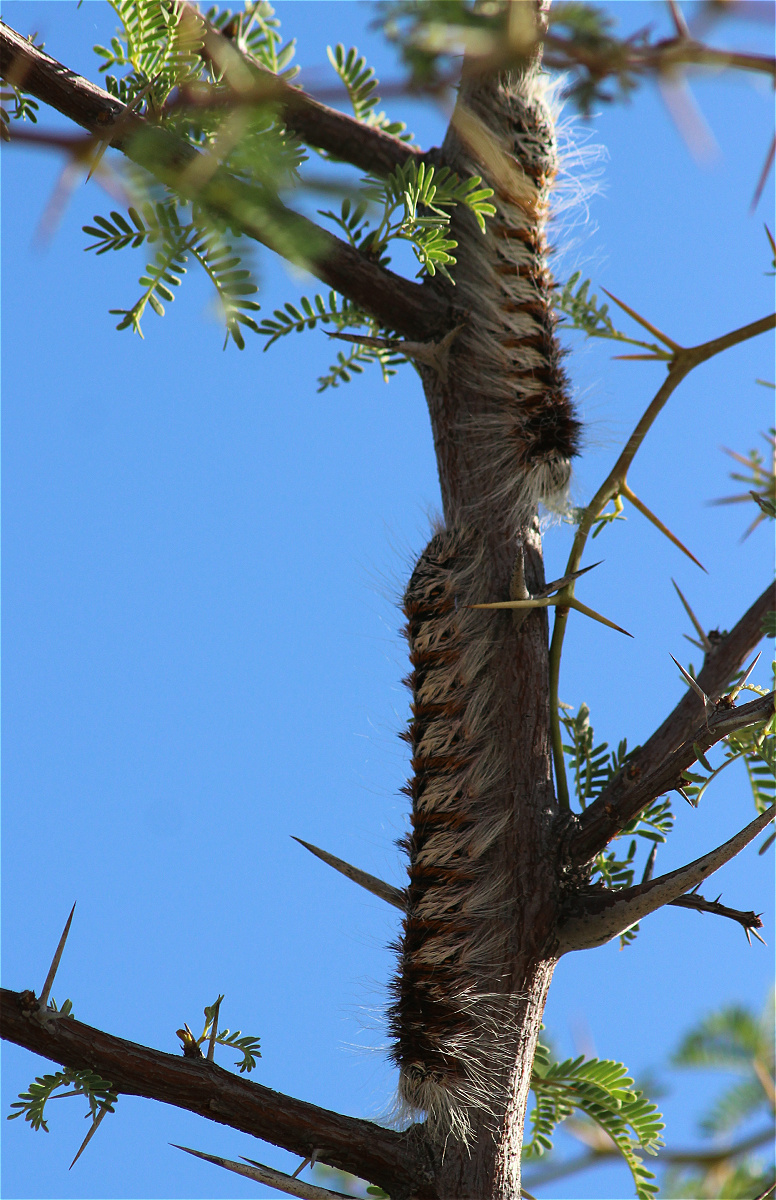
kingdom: Animalia
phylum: Arthropoda
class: Insecta
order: Lepidoptera
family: Lasiocampidae
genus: Gonometa
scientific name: Gonometa postica
